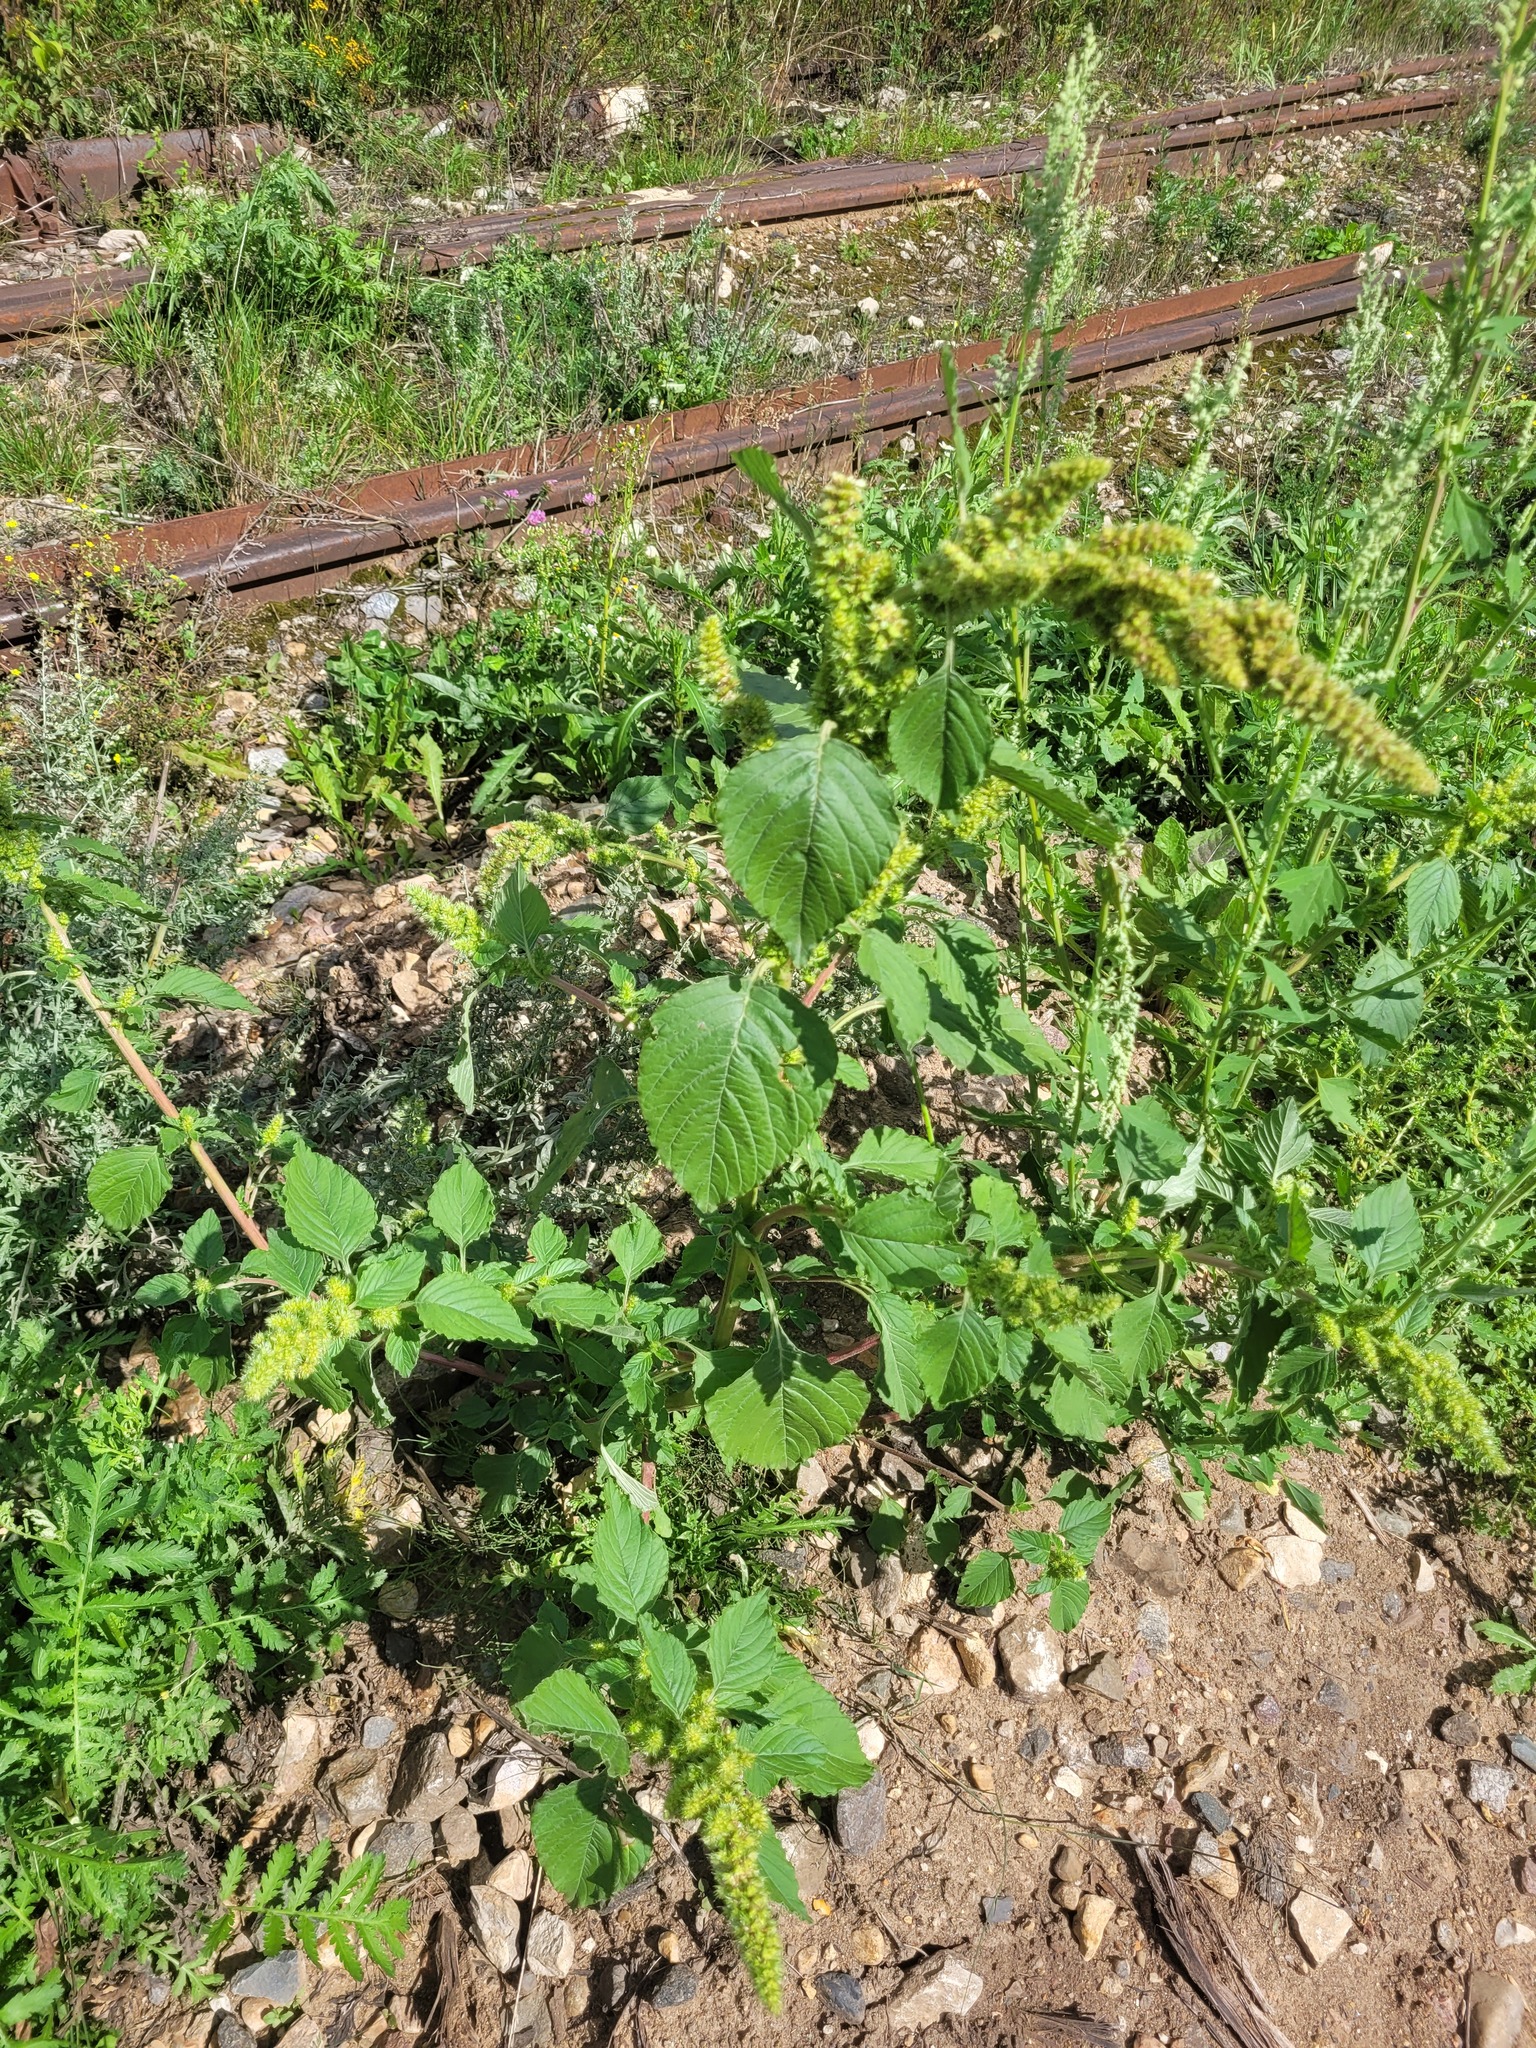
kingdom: Plantae
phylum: Tracheophyta
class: Magnoliopsida
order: Caryophyllales
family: Amaranthaceae
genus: Amaranthus
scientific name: Amaranthus retroflexus
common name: Redroot amaranth
